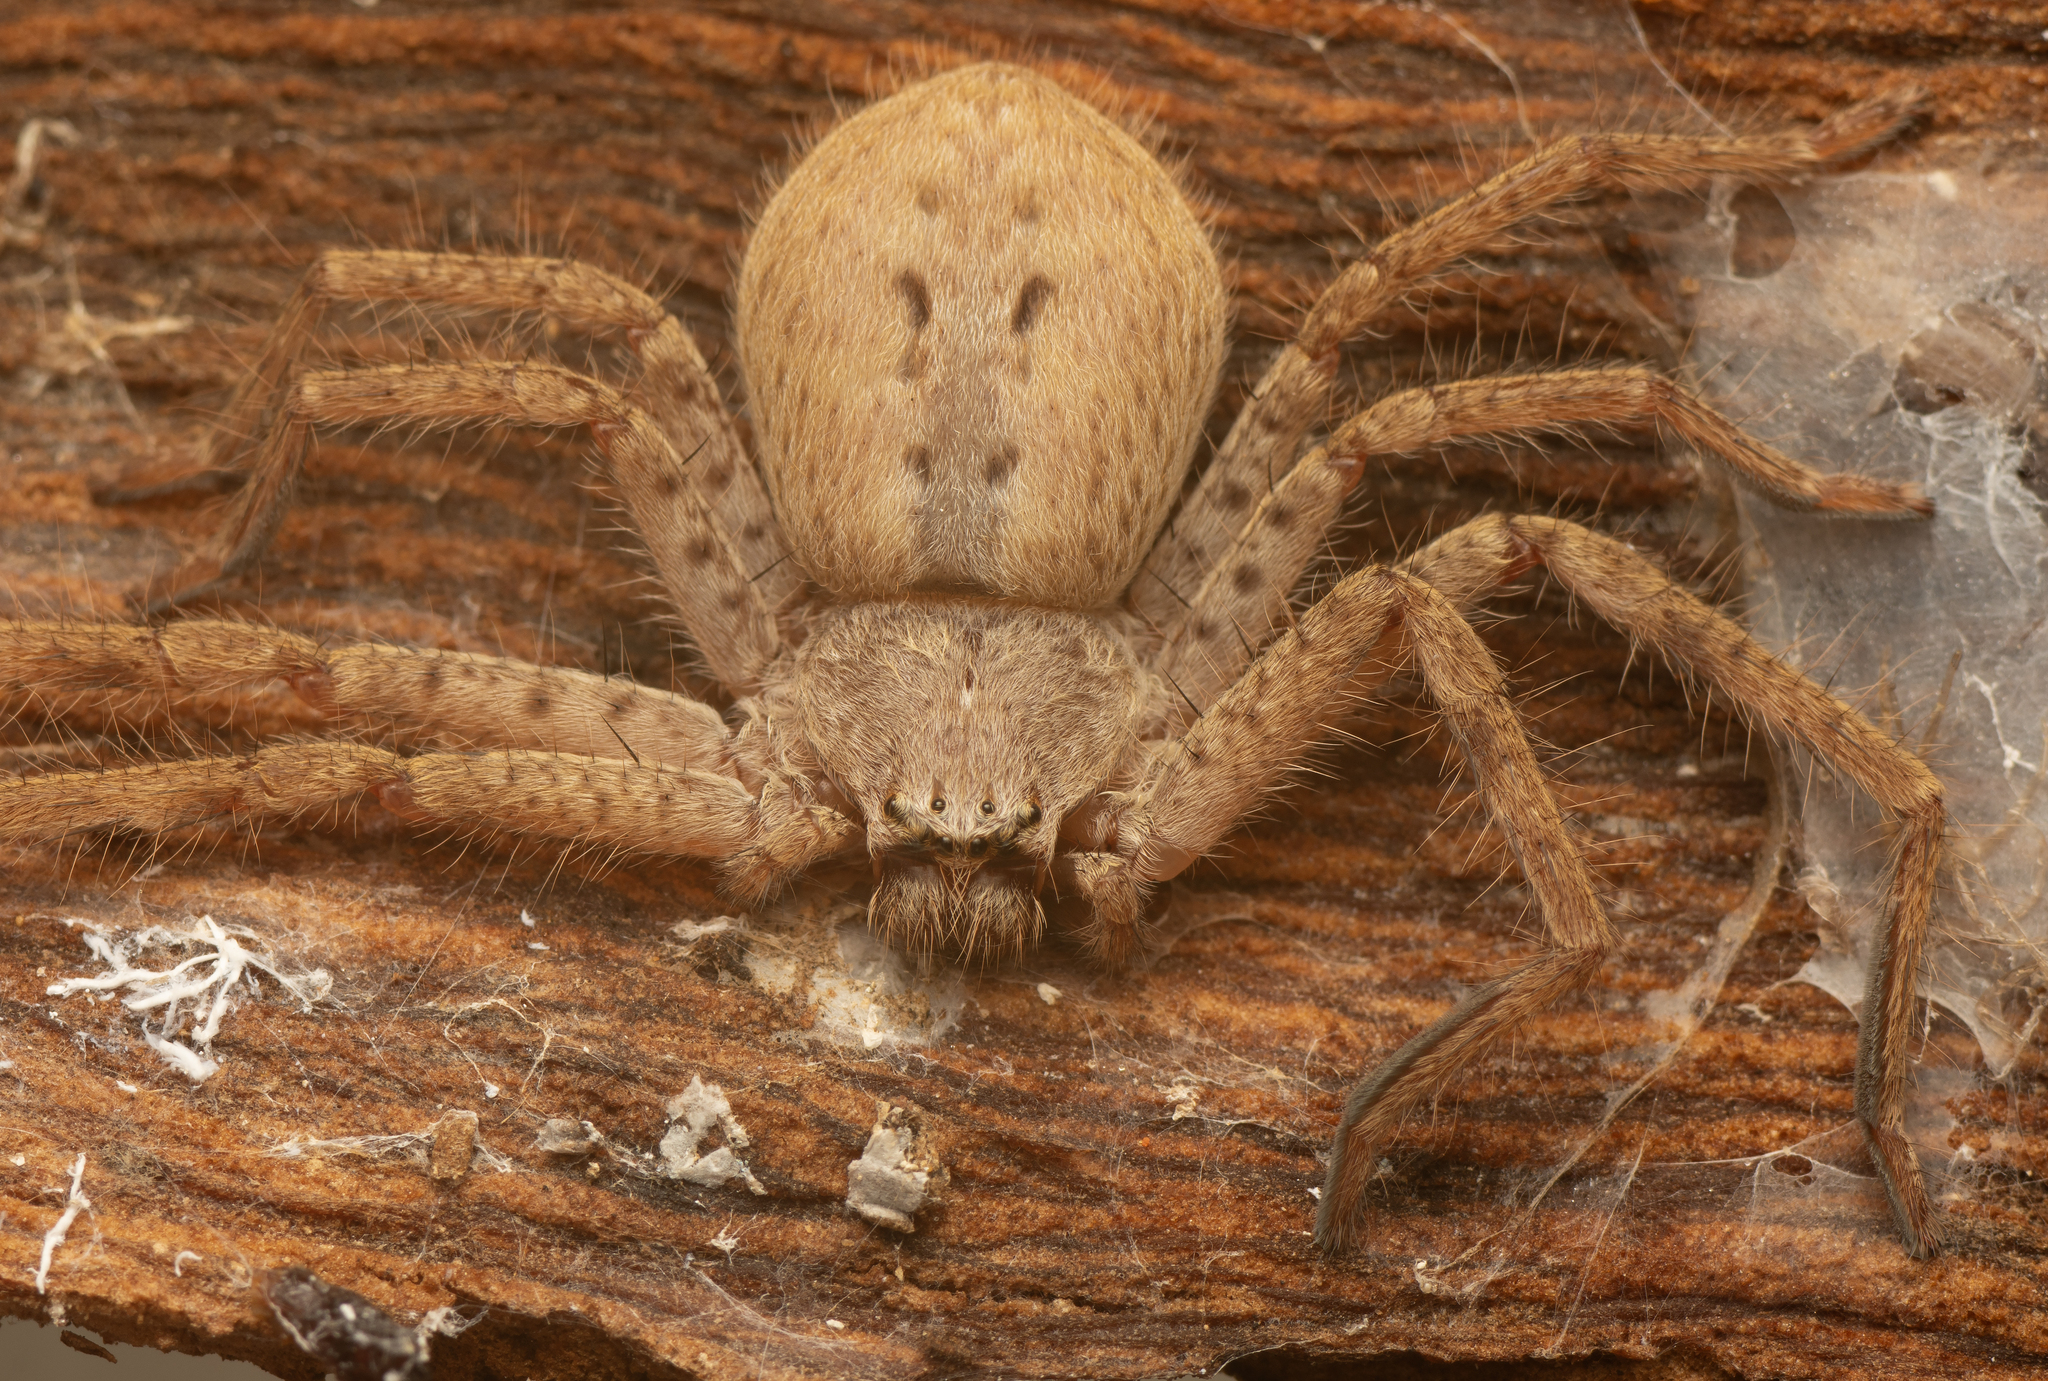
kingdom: Animalia
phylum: Arthropoda
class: Arachnida
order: Araneae
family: Sparassidae
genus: Isopeda
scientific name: Isopeda canberrana
